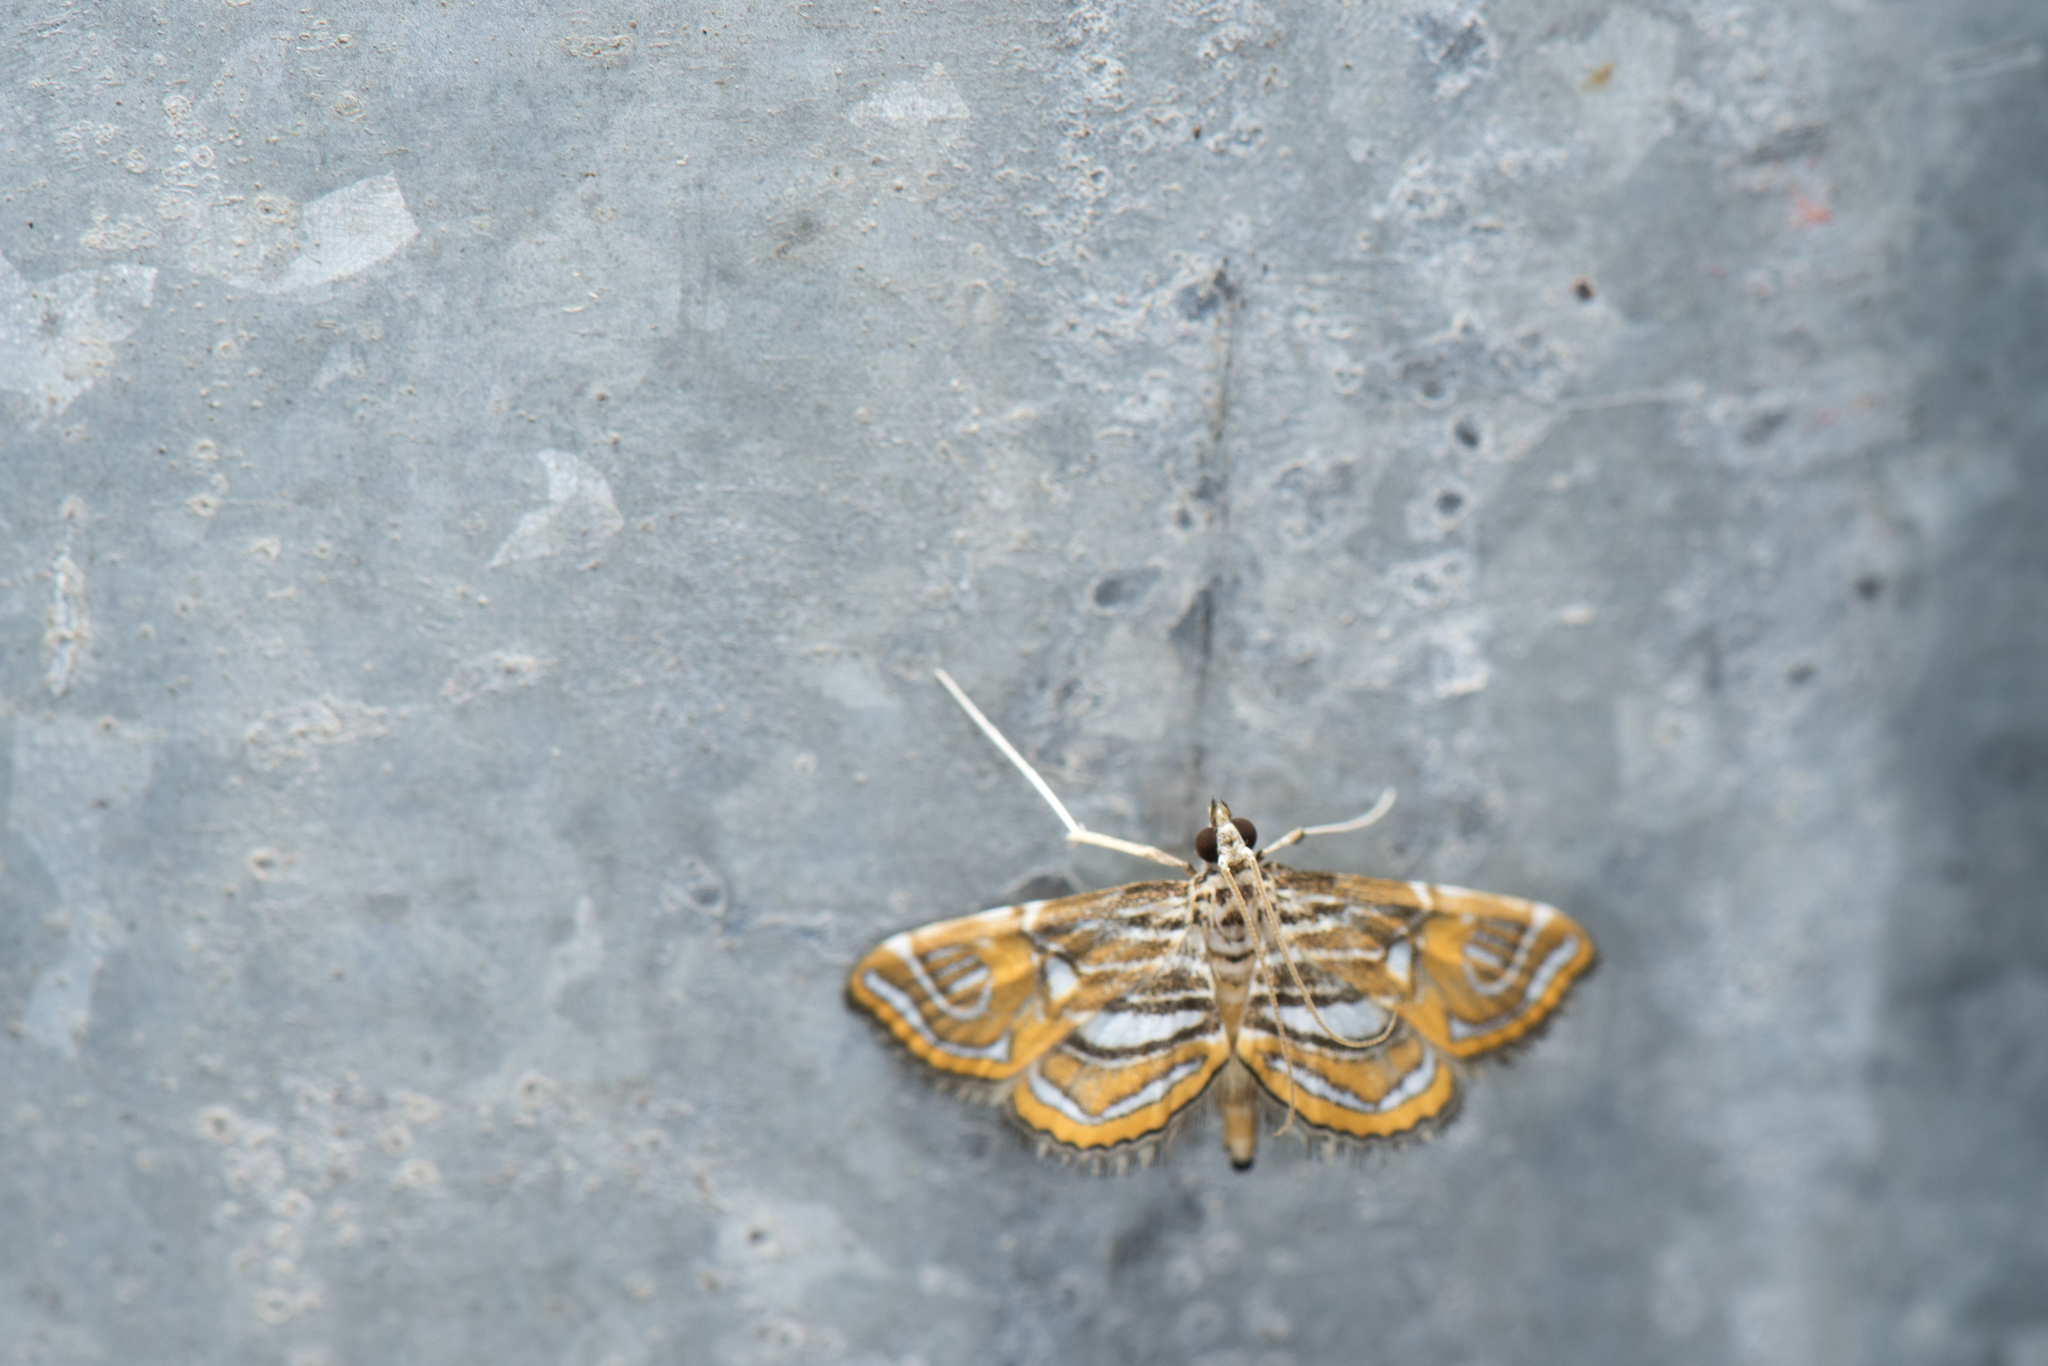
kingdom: Animalia
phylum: Arthropoda
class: Insecta
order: Lepidoptera
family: Crambidae
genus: Paracymoriza
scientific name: Paracymoriza cataclystalis
